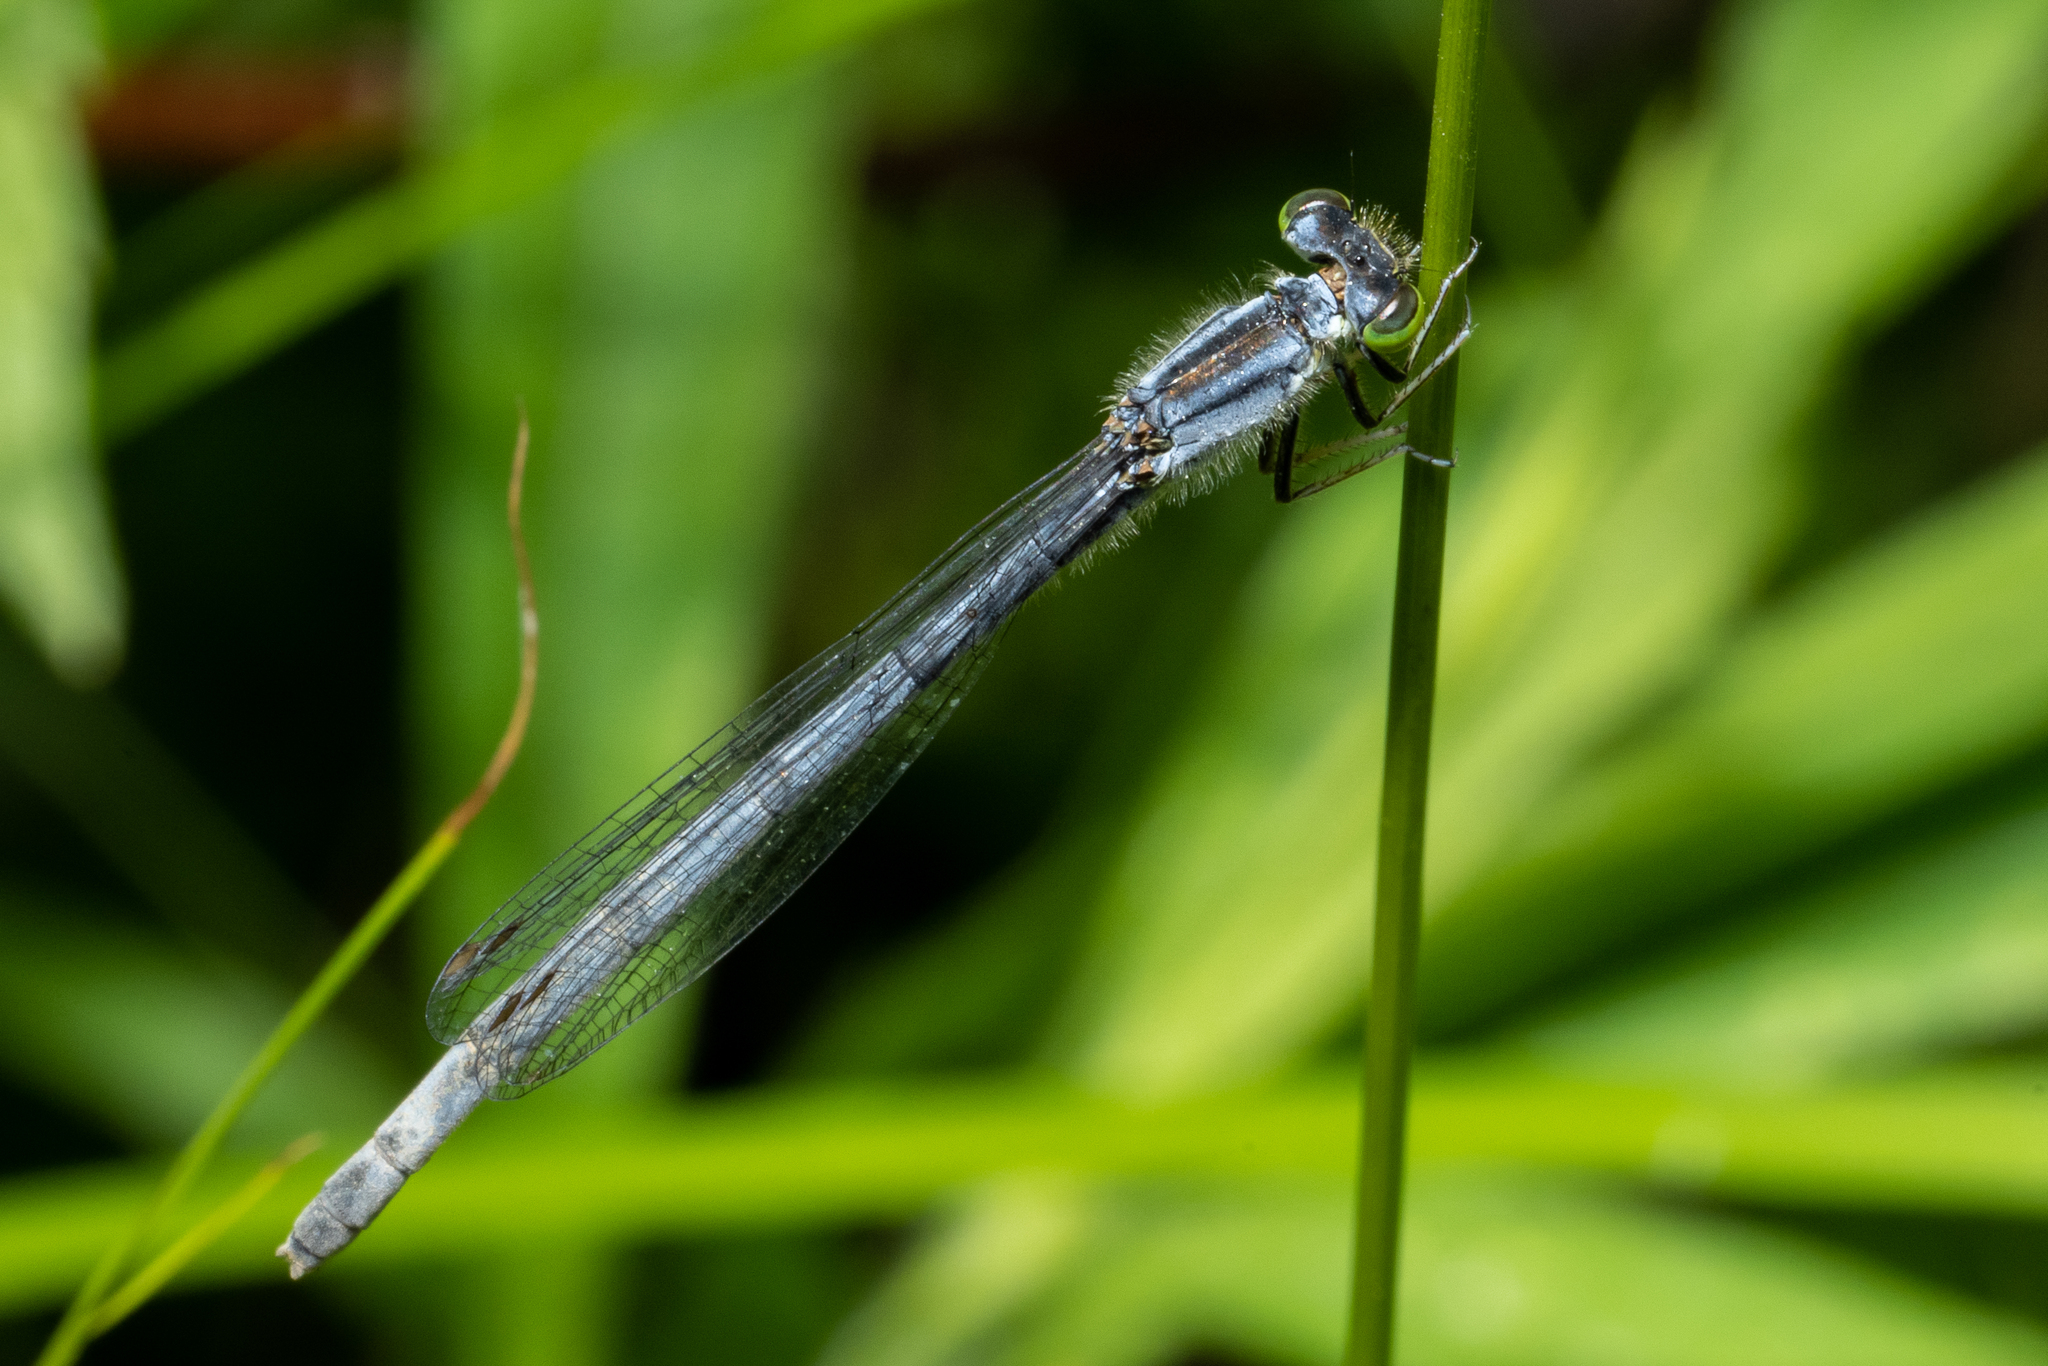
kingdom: Animalia
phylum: Arthropoda
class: Insecta
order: Odonata
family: Coenagrionidae
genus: Ischnura
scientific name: Ischnura verticalis
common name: Eastern forktail
